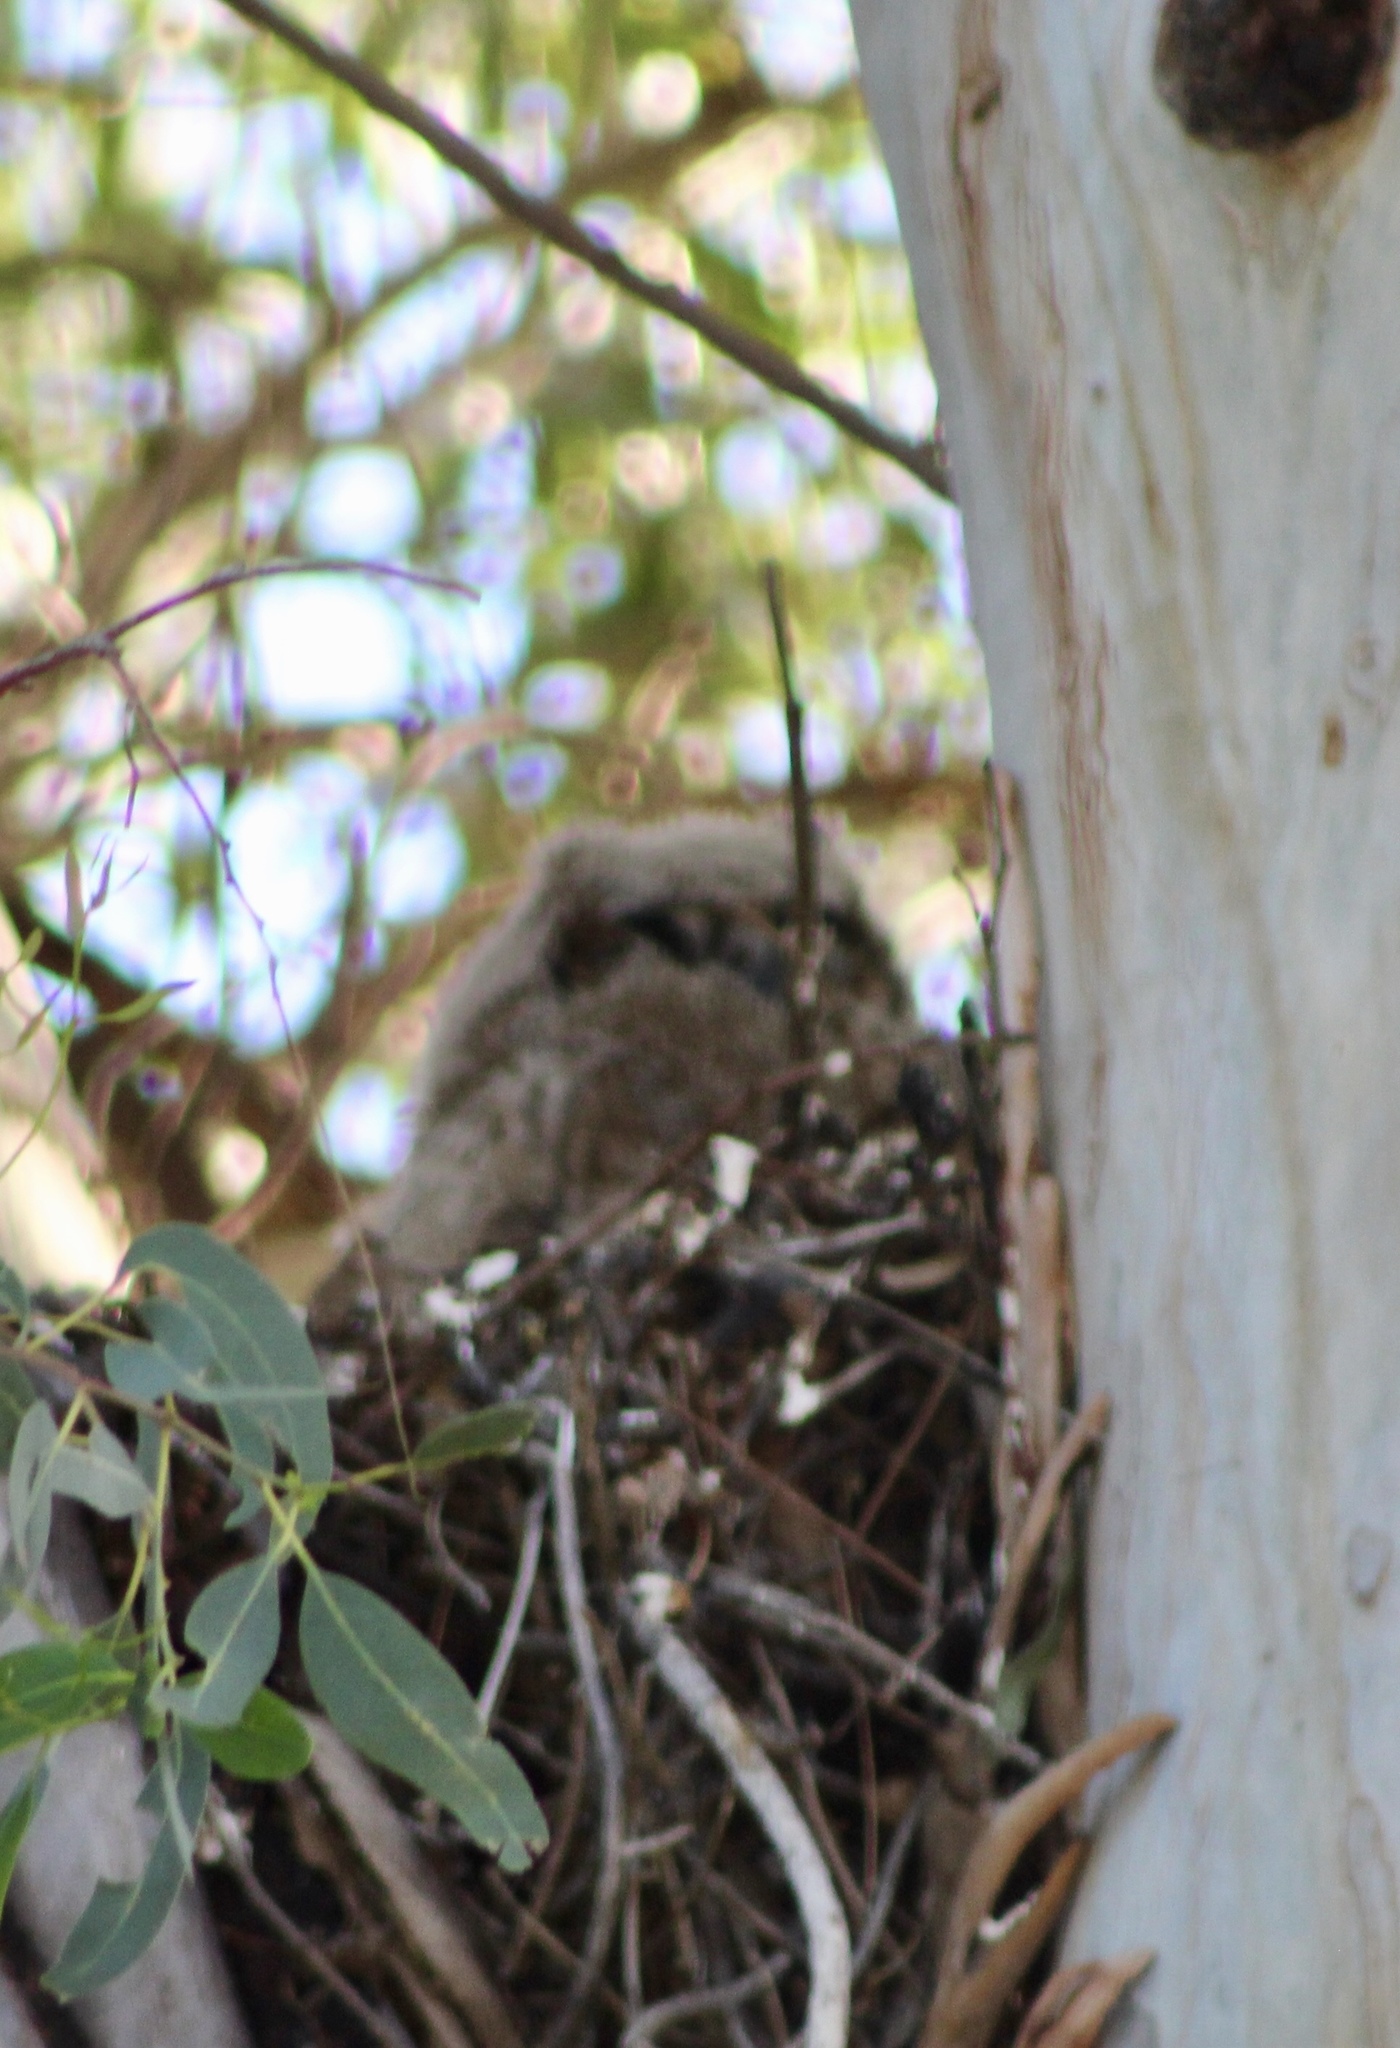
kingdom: Animalia
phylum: Chordata
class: Aves
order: Strigiformes
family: Strigidae
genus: Bubo
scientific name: Bubo virginianus
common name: Great horned owl
